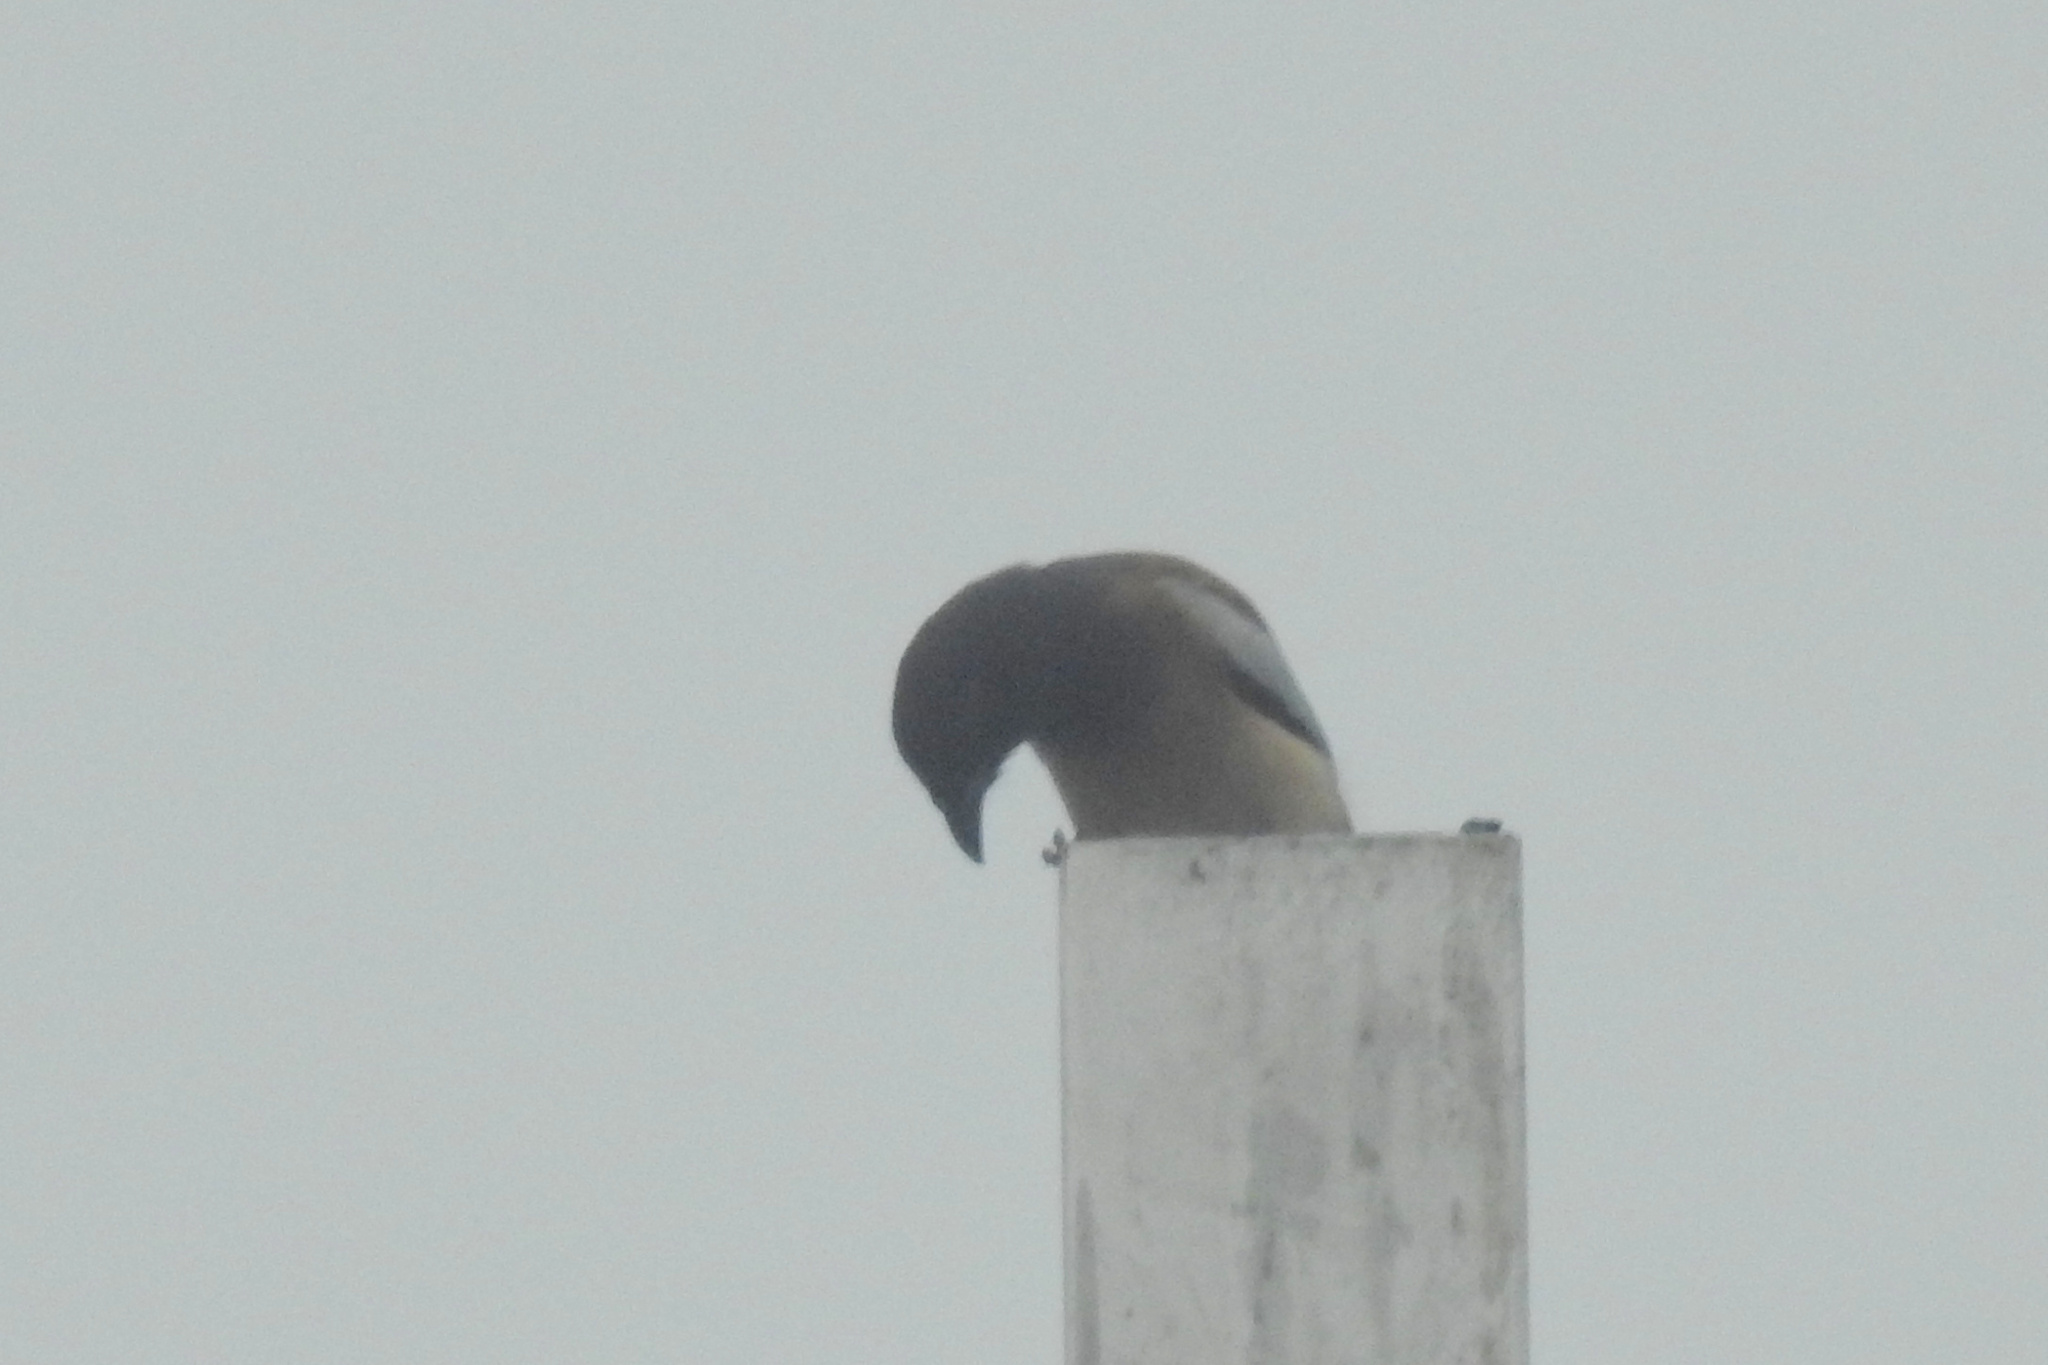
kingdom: Animalia
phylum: Chordata
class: Aves
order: Passeriformes
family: Corvidae
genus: Dendrocitta
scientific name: Dendrocitta vagabunda
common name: Rufous treepie
